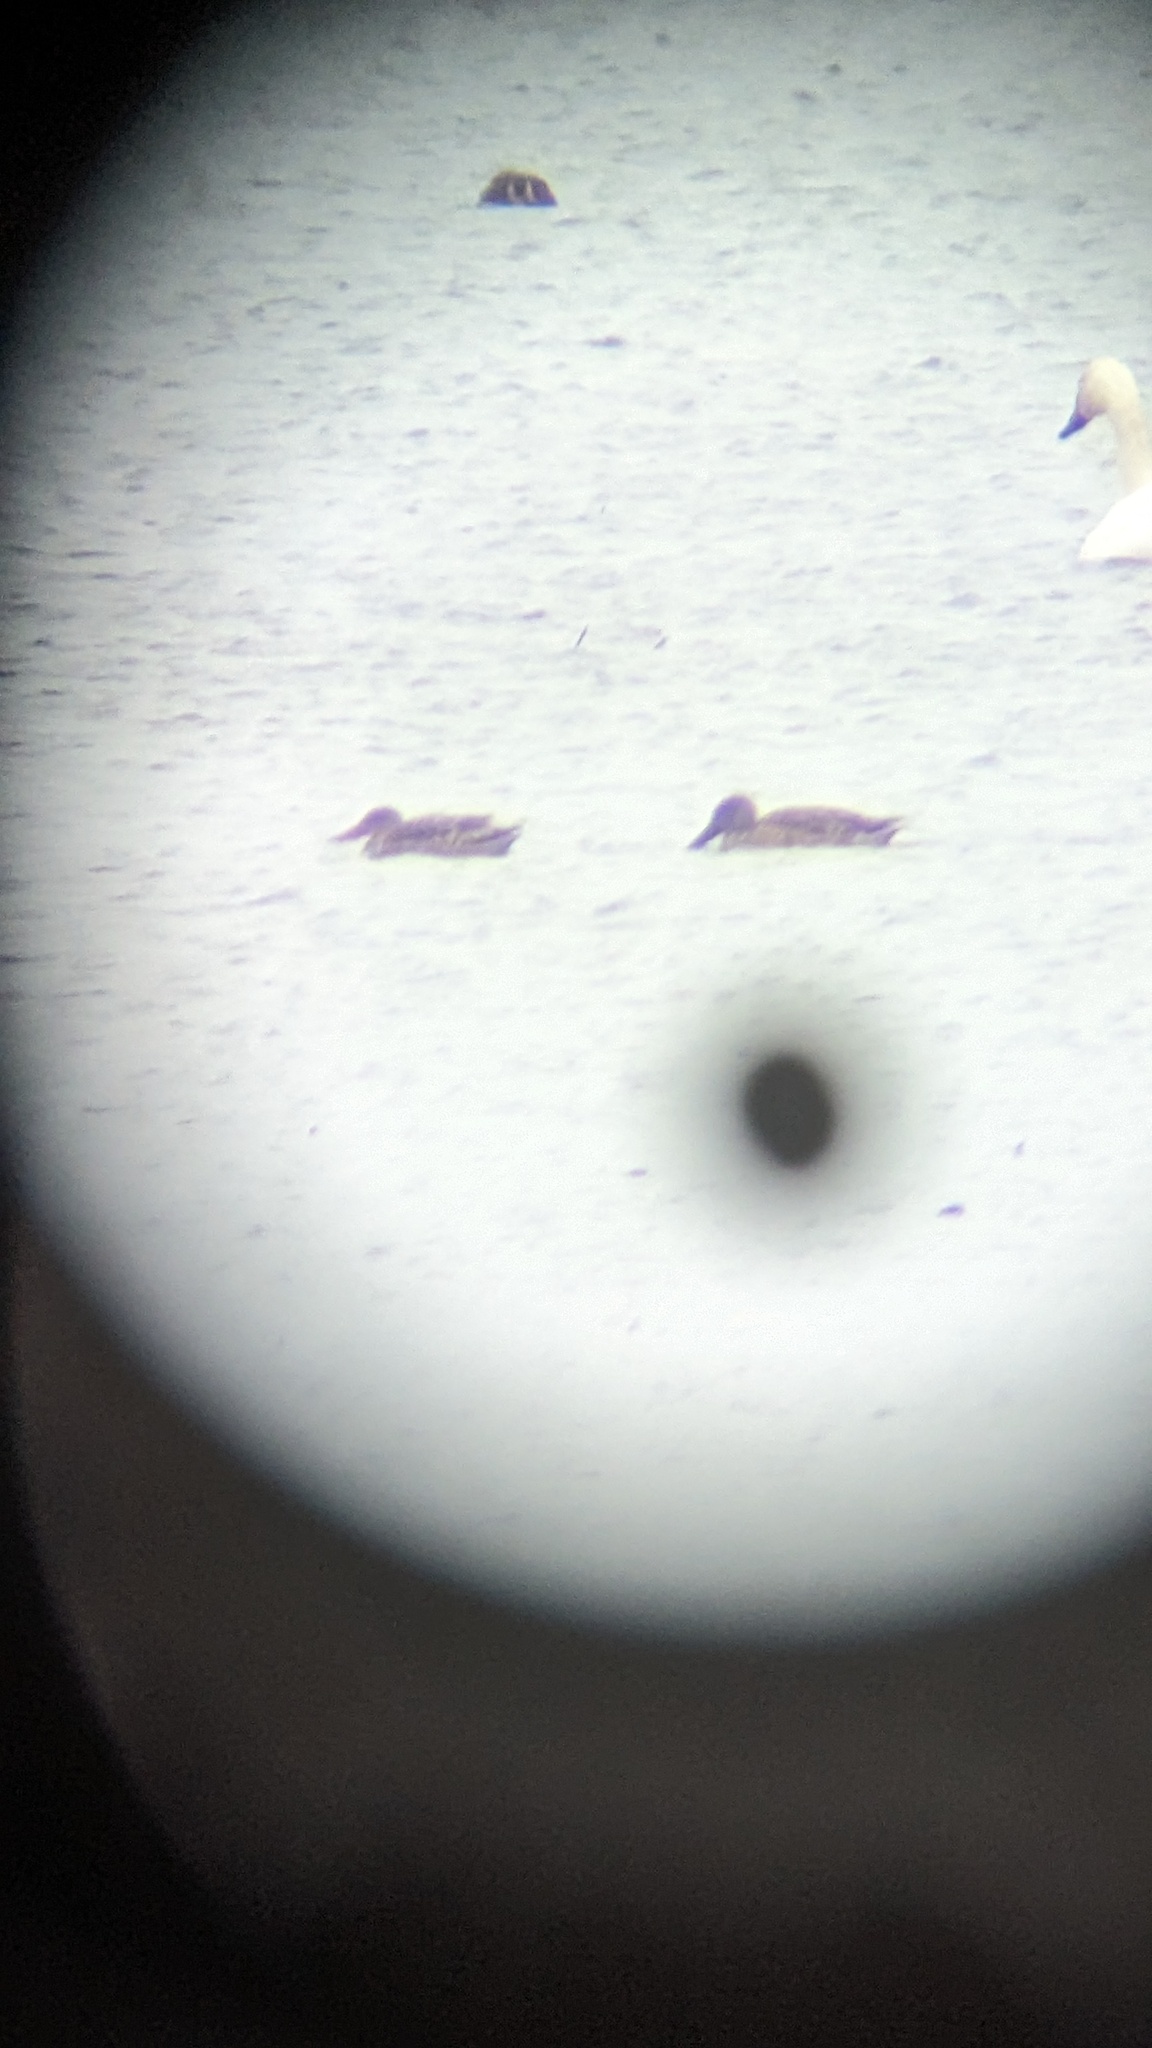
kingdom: Animalia
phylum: Chordata
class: Aves
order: Anseriformes
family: Anatidae
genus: Spatula
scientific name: Spatula clypeata
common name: Northern shoveler
